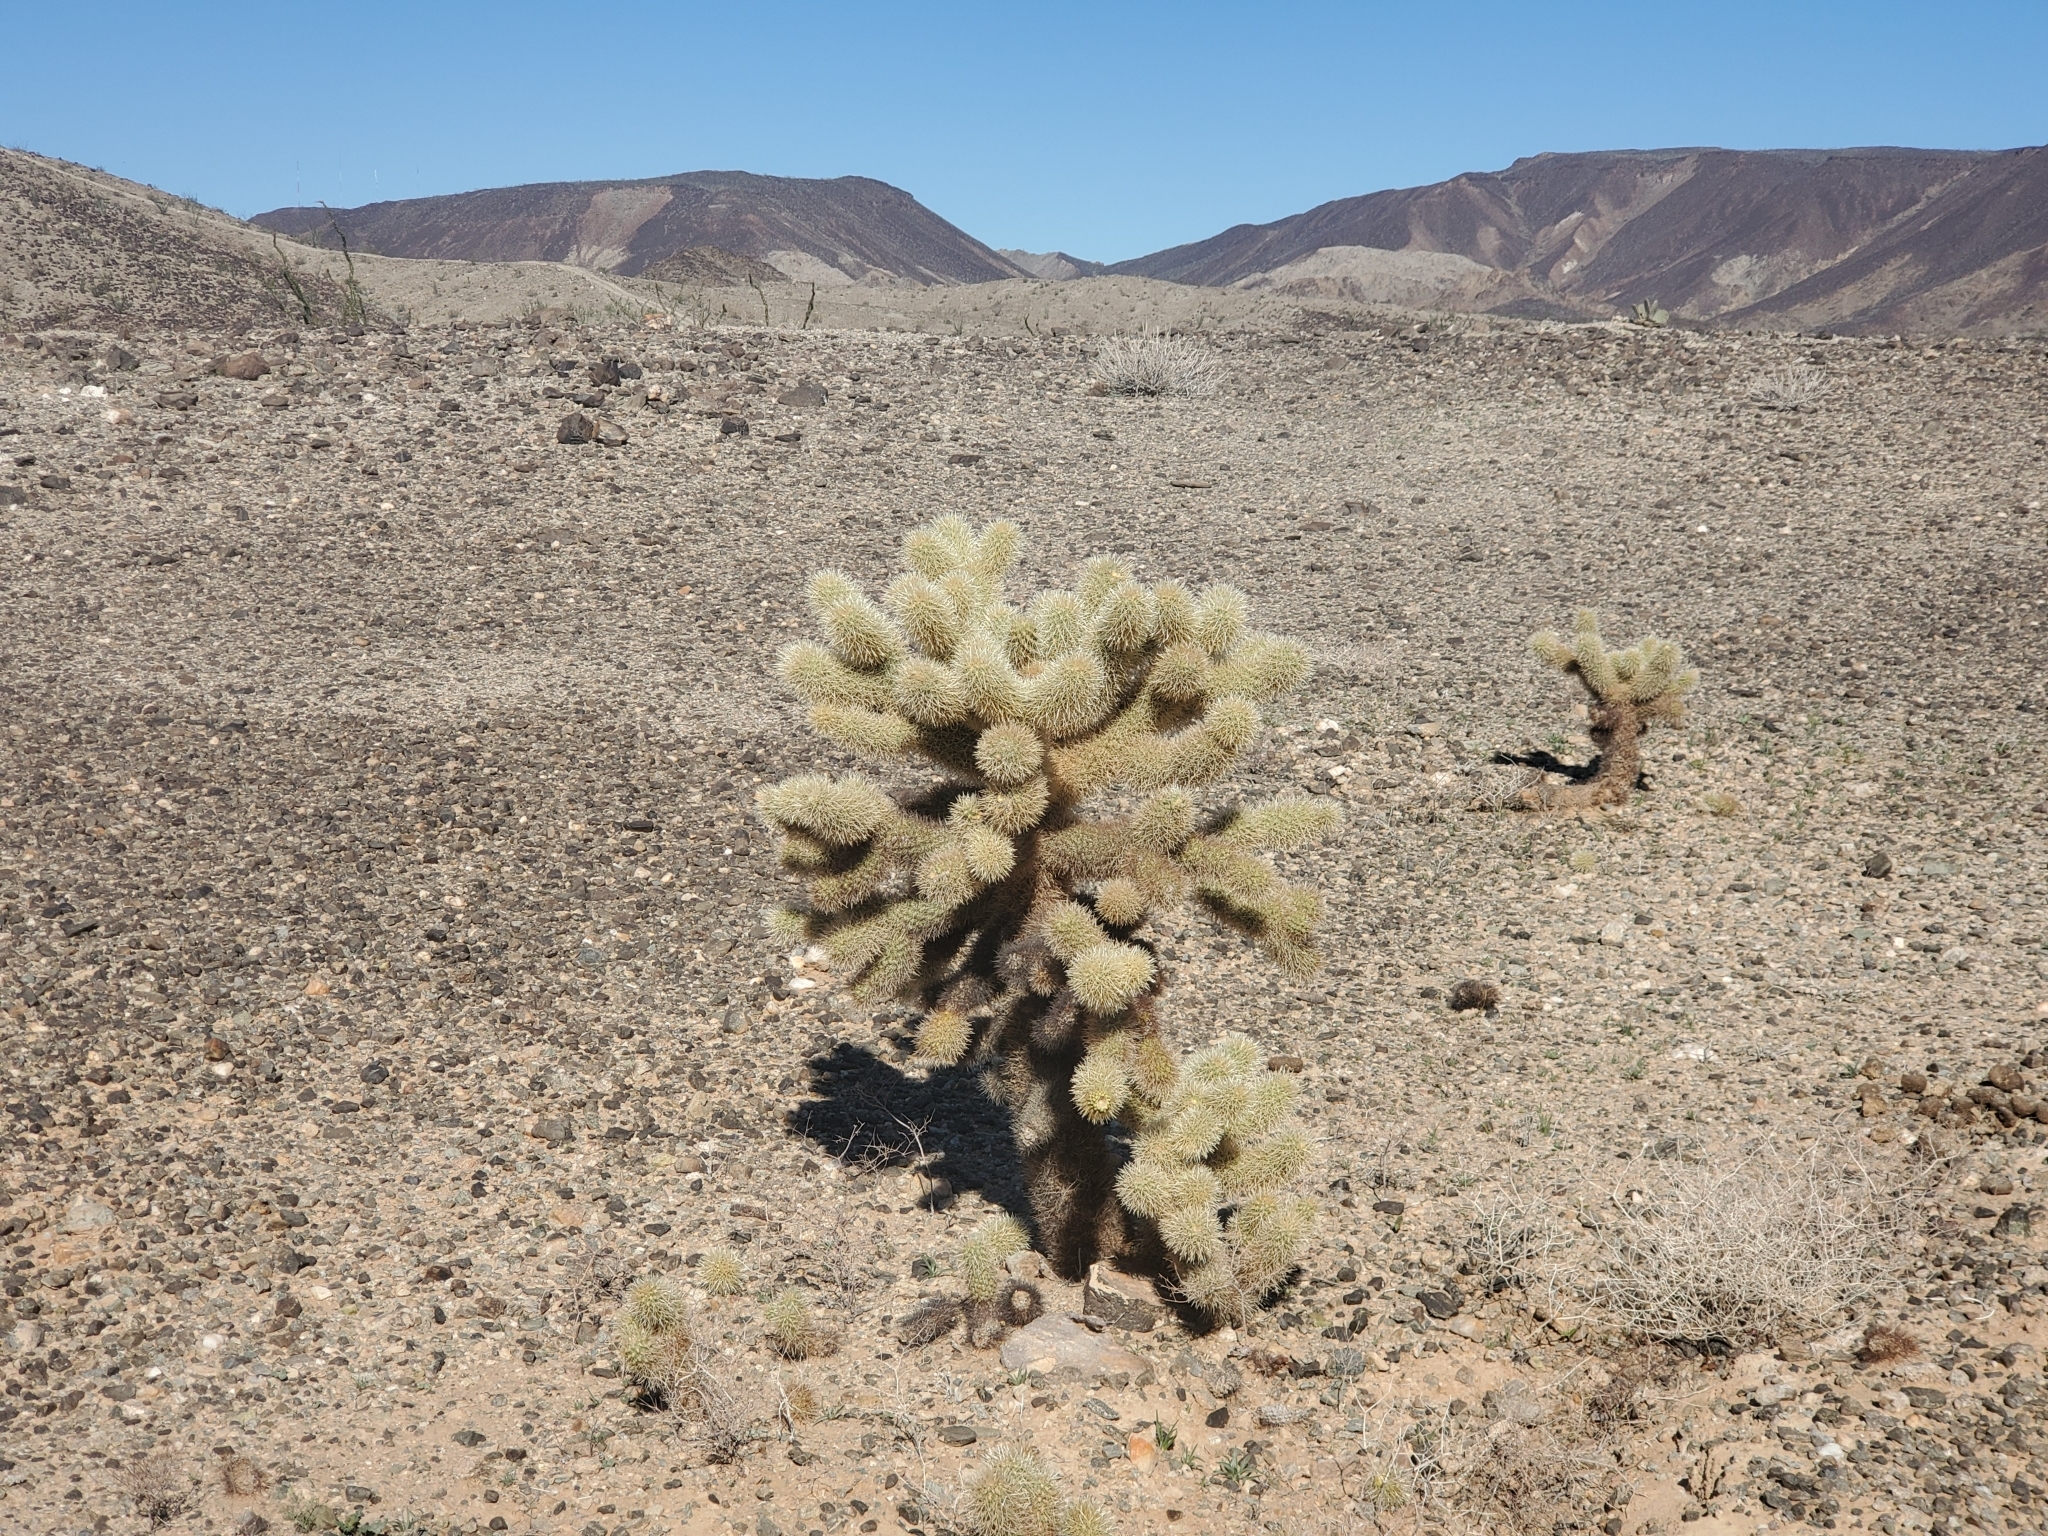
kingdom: Plantae
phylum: Tracheophyta
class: Magnoliopsida
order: Caryophyllales
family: Cactaceae
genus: Cylindropuntia
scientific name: Cylindropuntia fosbergii
